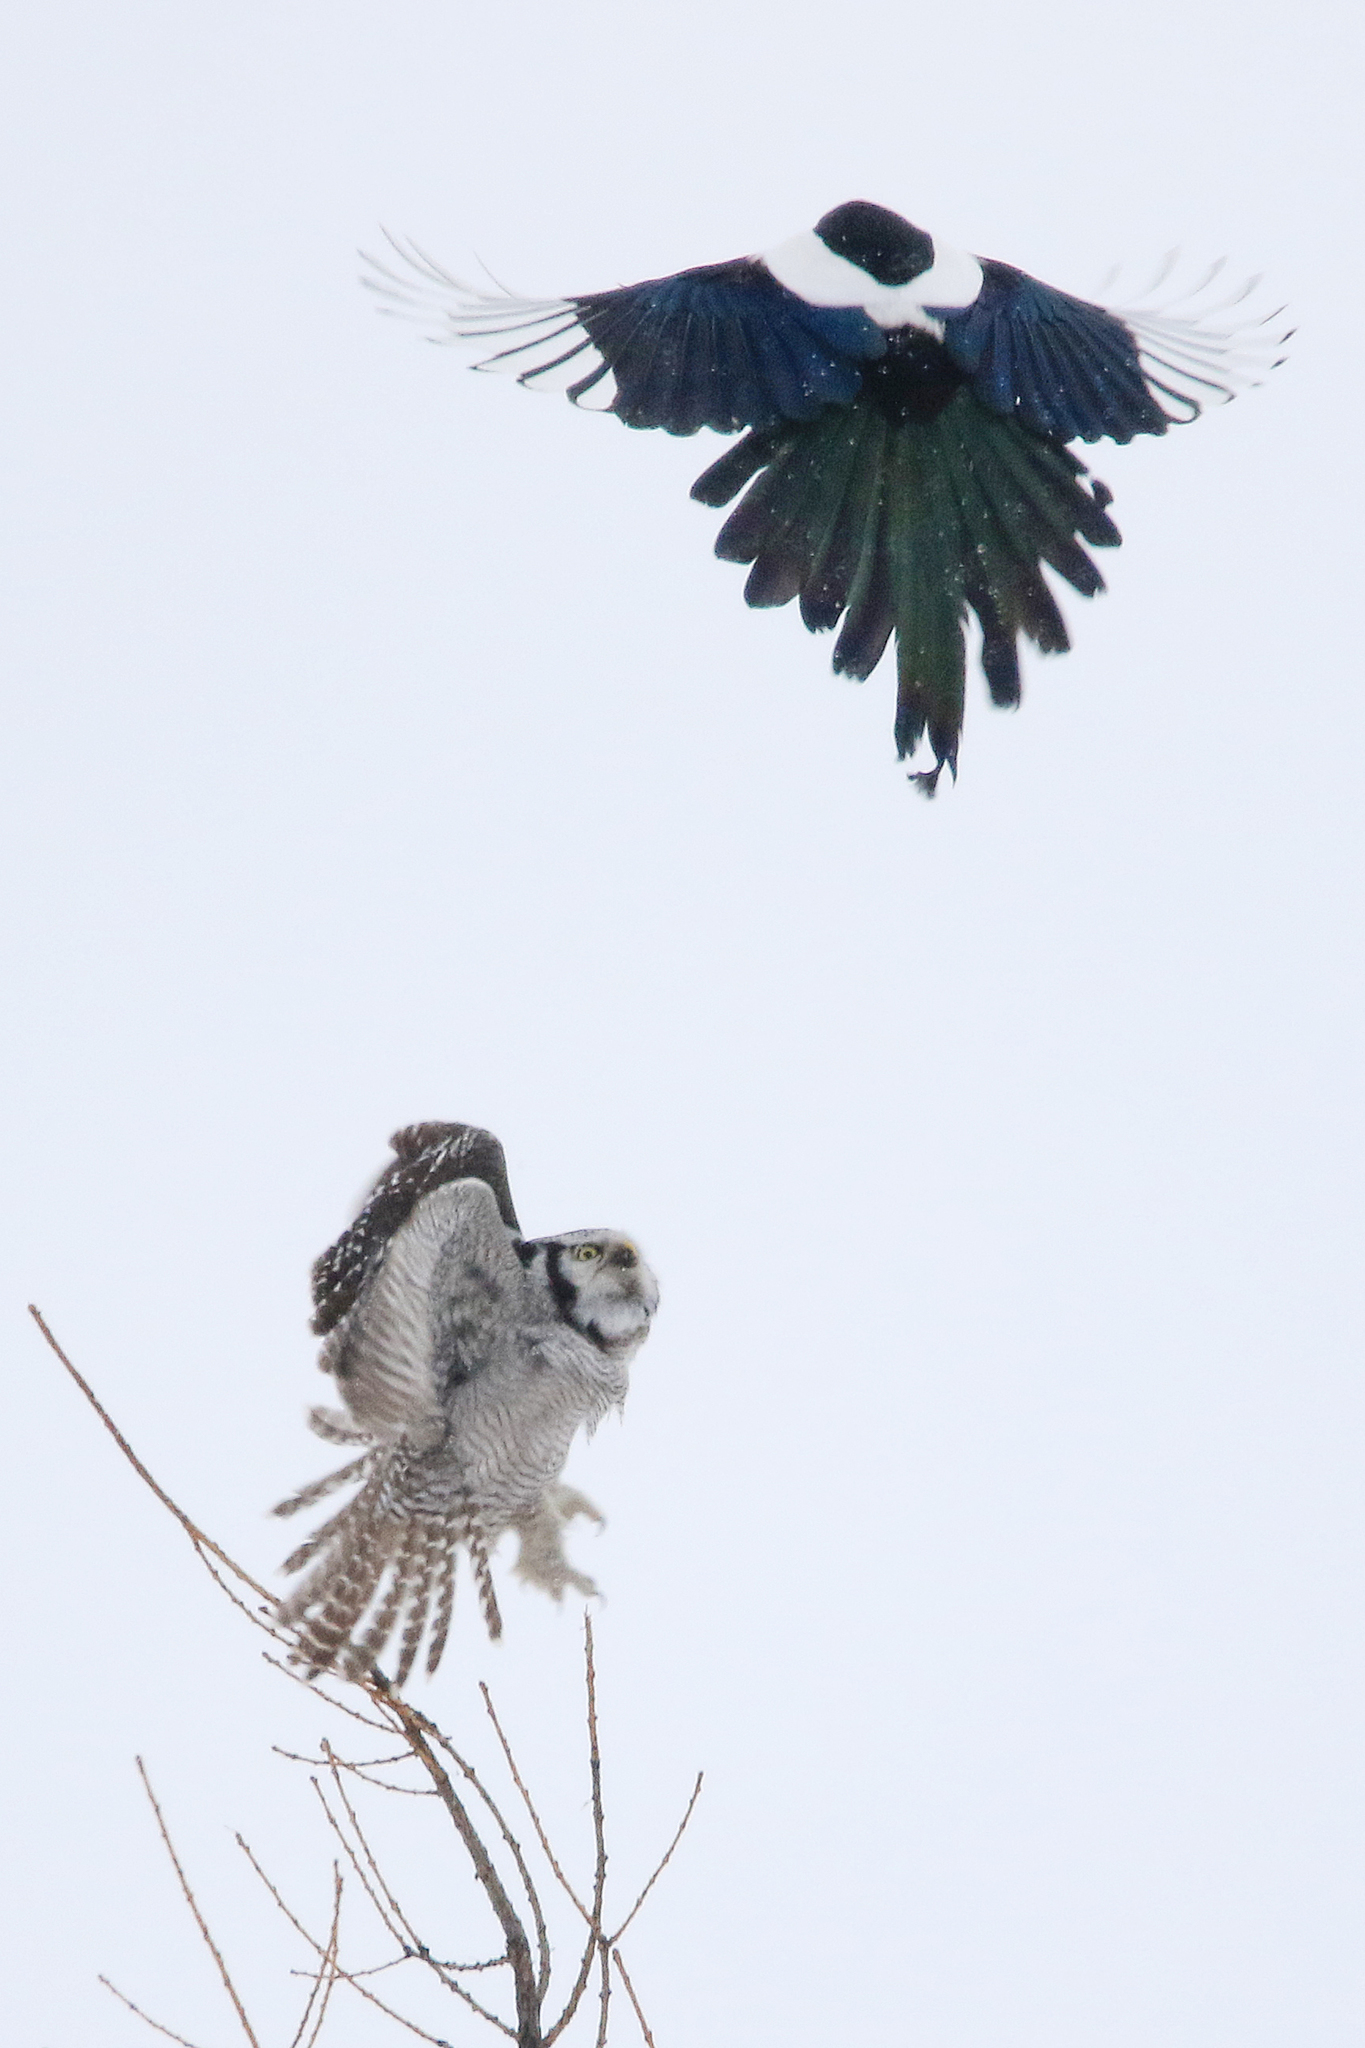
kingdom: Animalia
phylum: Chordata
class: Aves
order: Strigiformes
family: Strigidae
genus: Surnia
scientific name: Surnia ulula
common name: Northern hawk-owl
